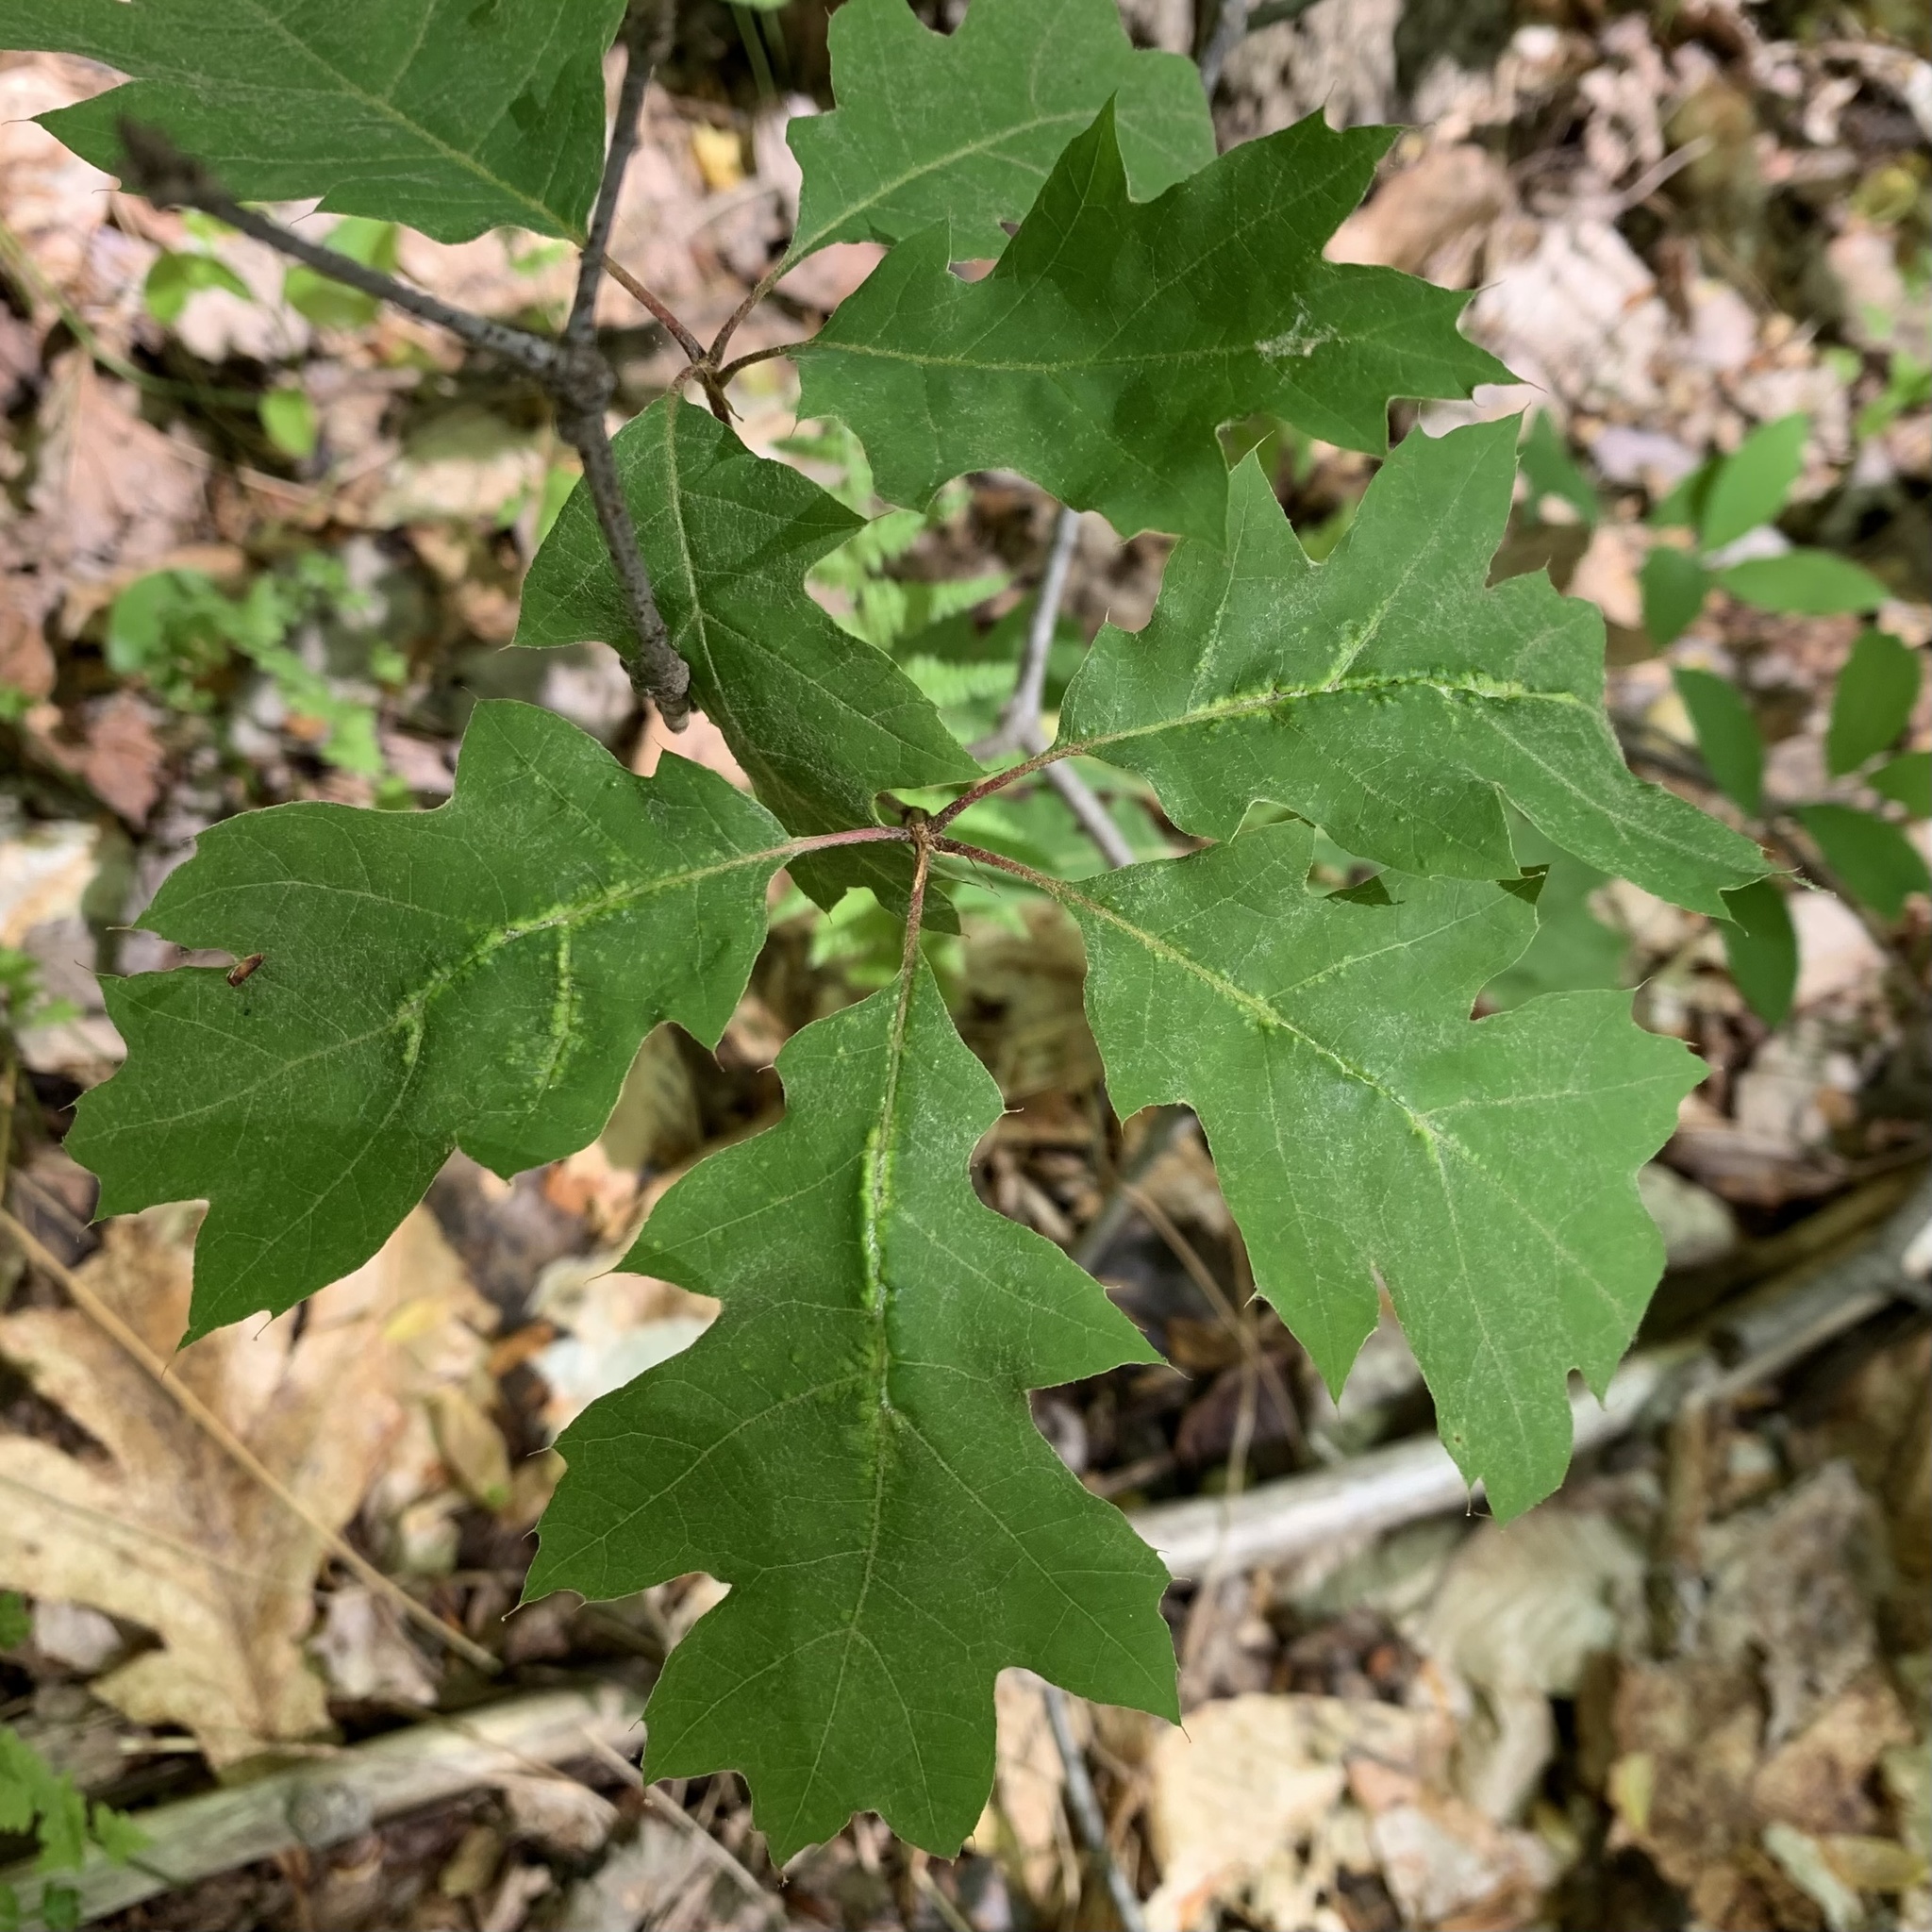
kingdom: Animalia
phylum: Arthropoda
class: Insecta
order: Diptera
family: Cecidomyiidae
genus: Macrodiplosis
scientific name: Macrodiplosis niveipila
